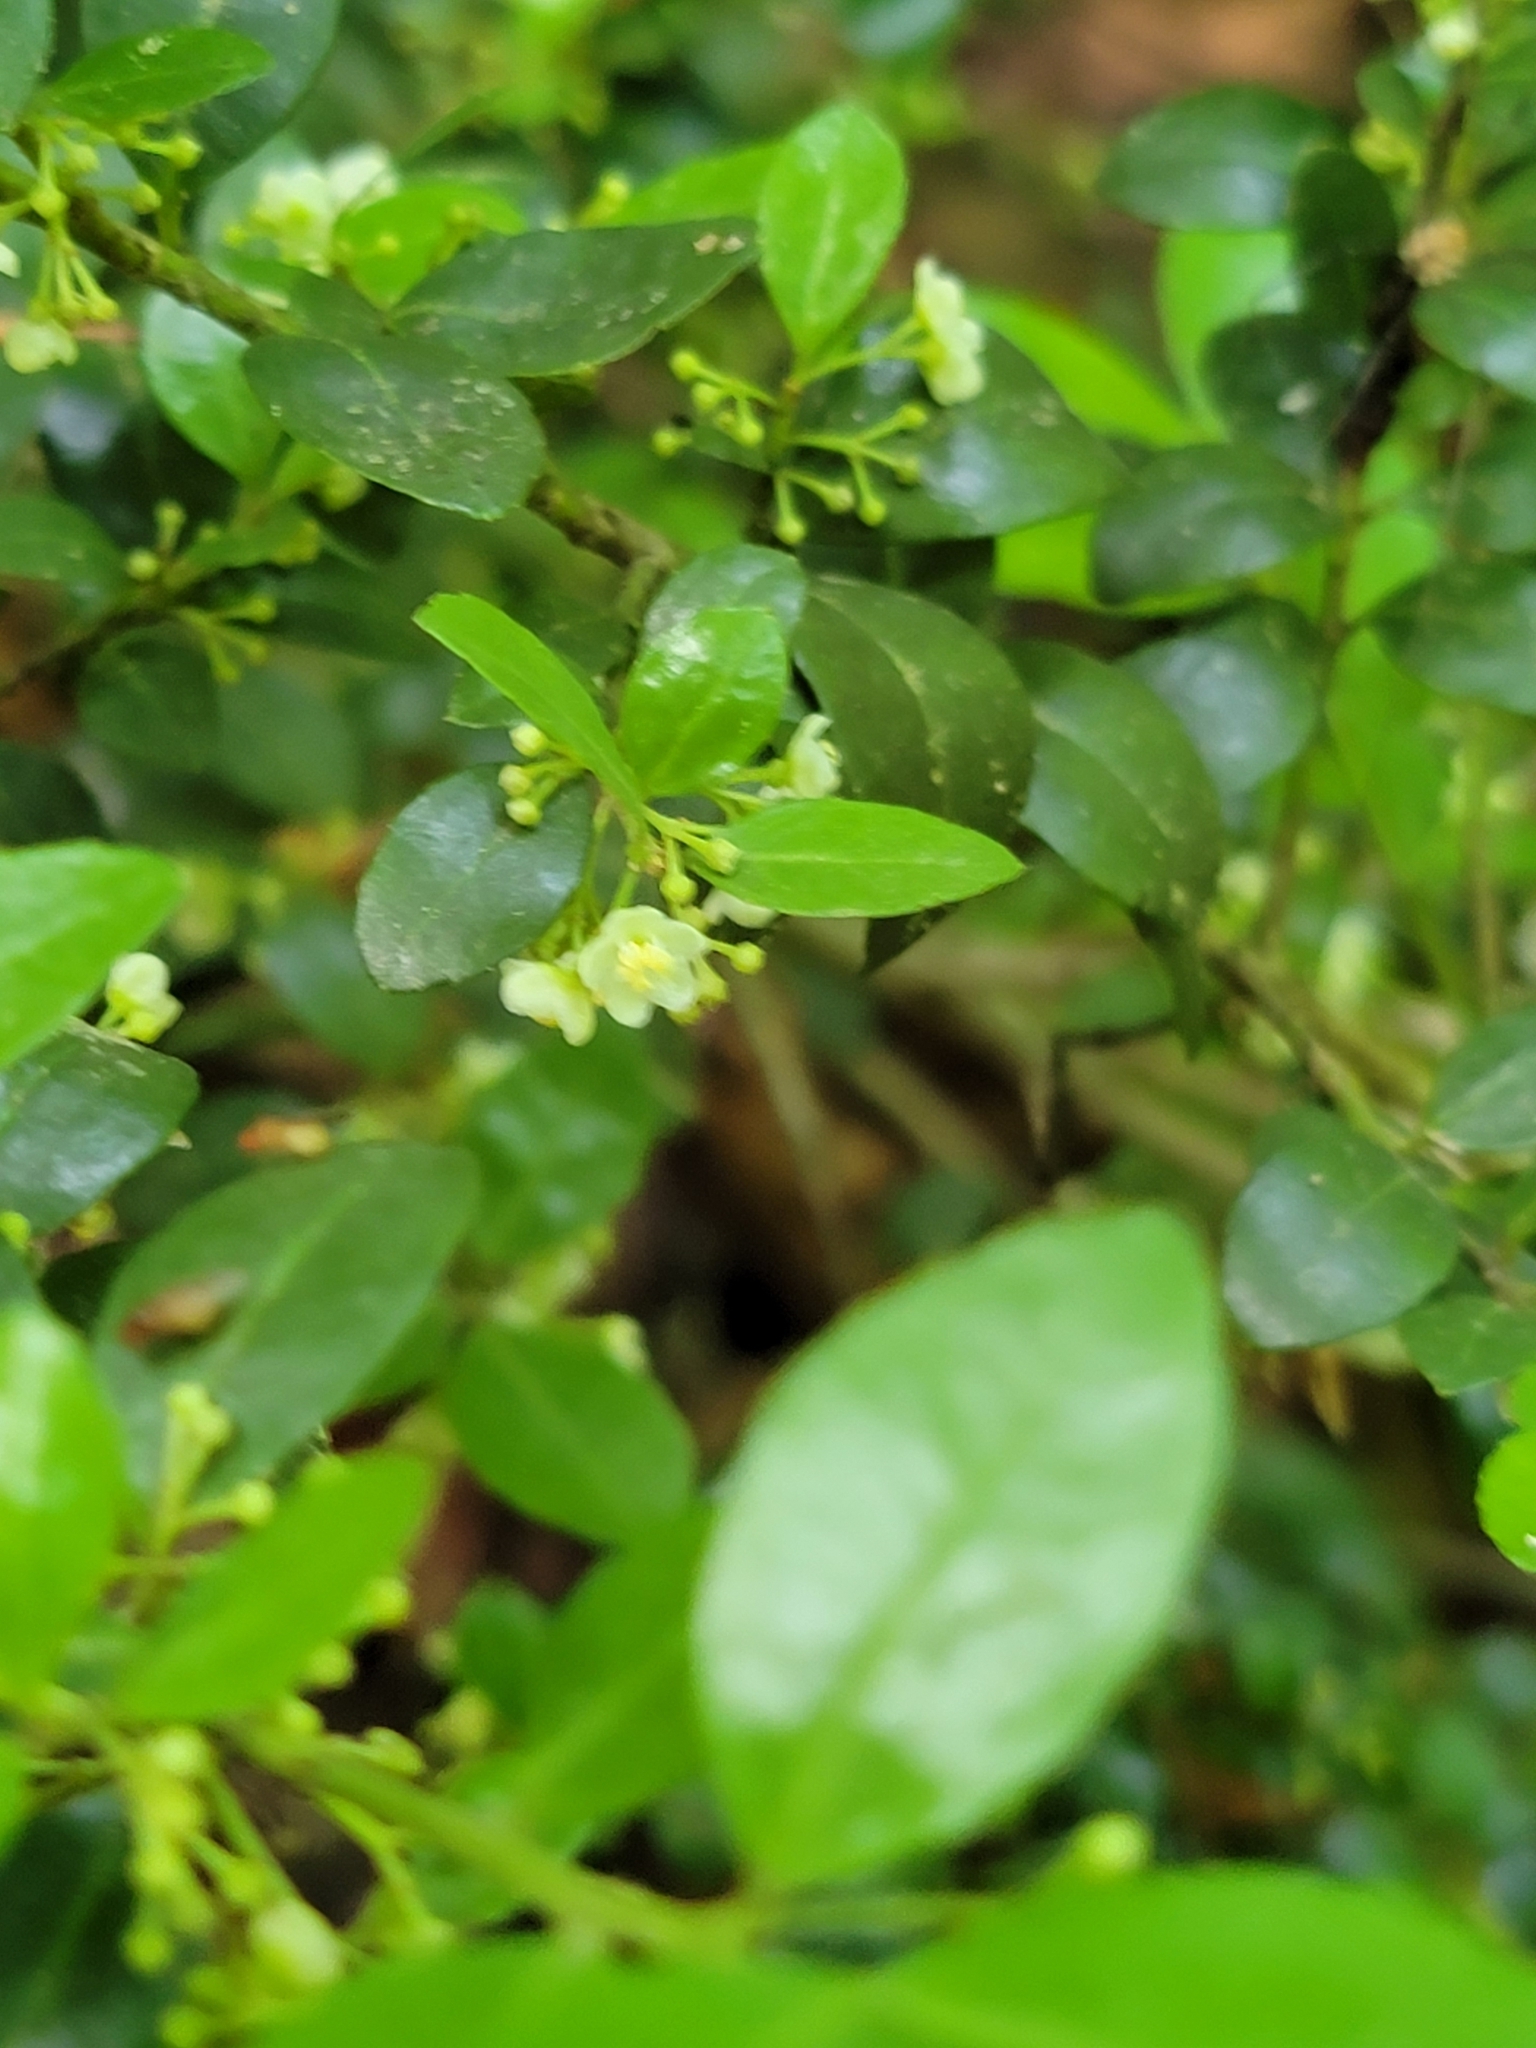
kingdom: Plantae
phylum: Tracheophyta
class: Magnoliopsida
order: Aquifoliales
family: Aquifoliaceae
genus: Ilex
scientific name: Ilex crenata
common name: Japanese holly
